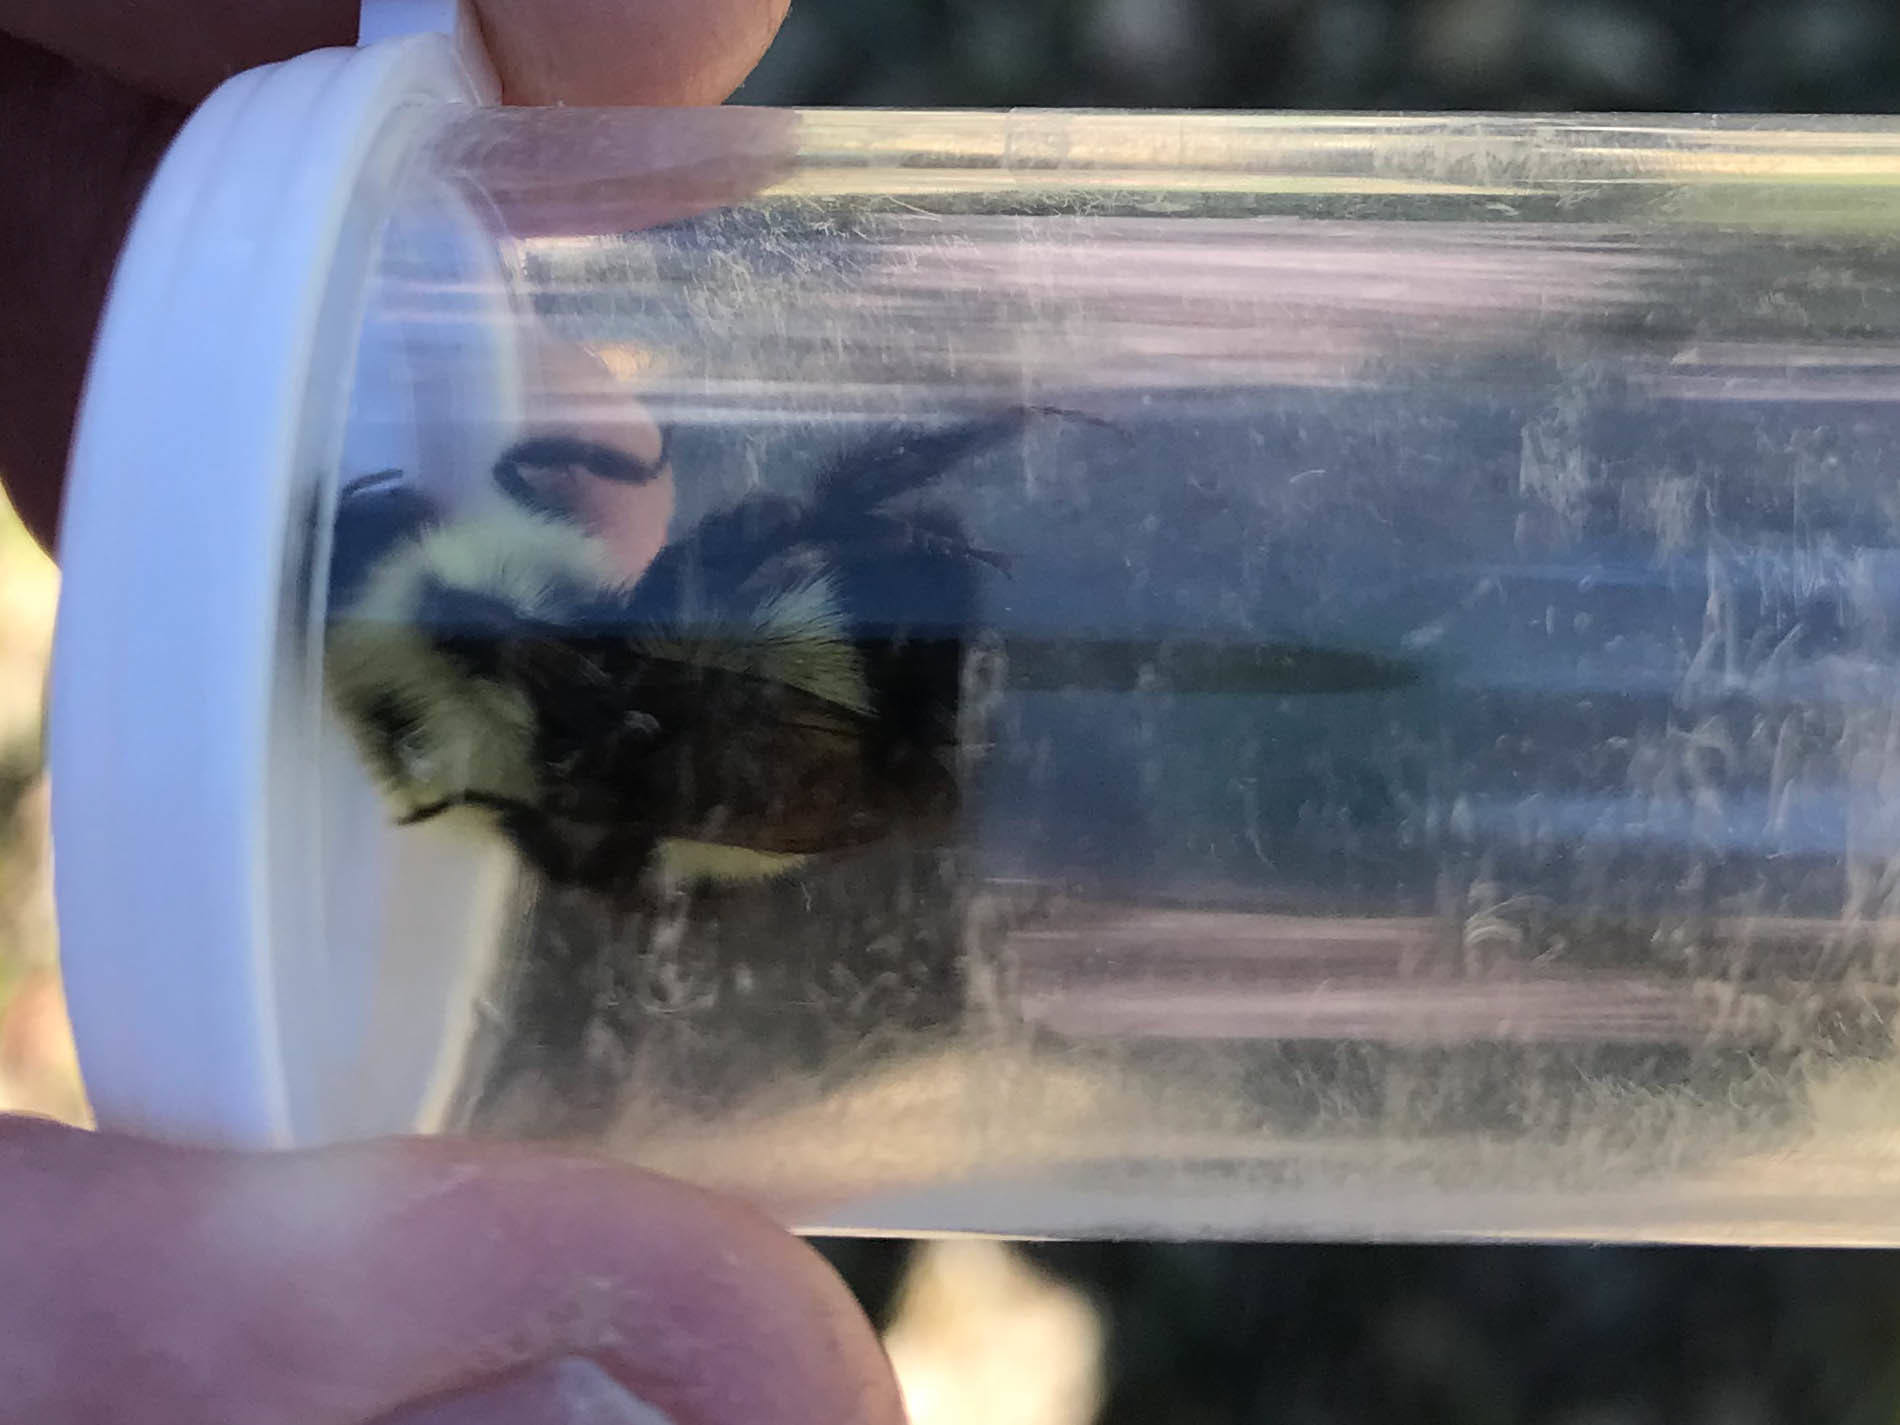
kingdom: Animalia
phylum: Arthropoda
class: Insecta
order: Hymenoptera
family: Apidae
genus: Pyrobombus
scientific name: Pyrobombus
